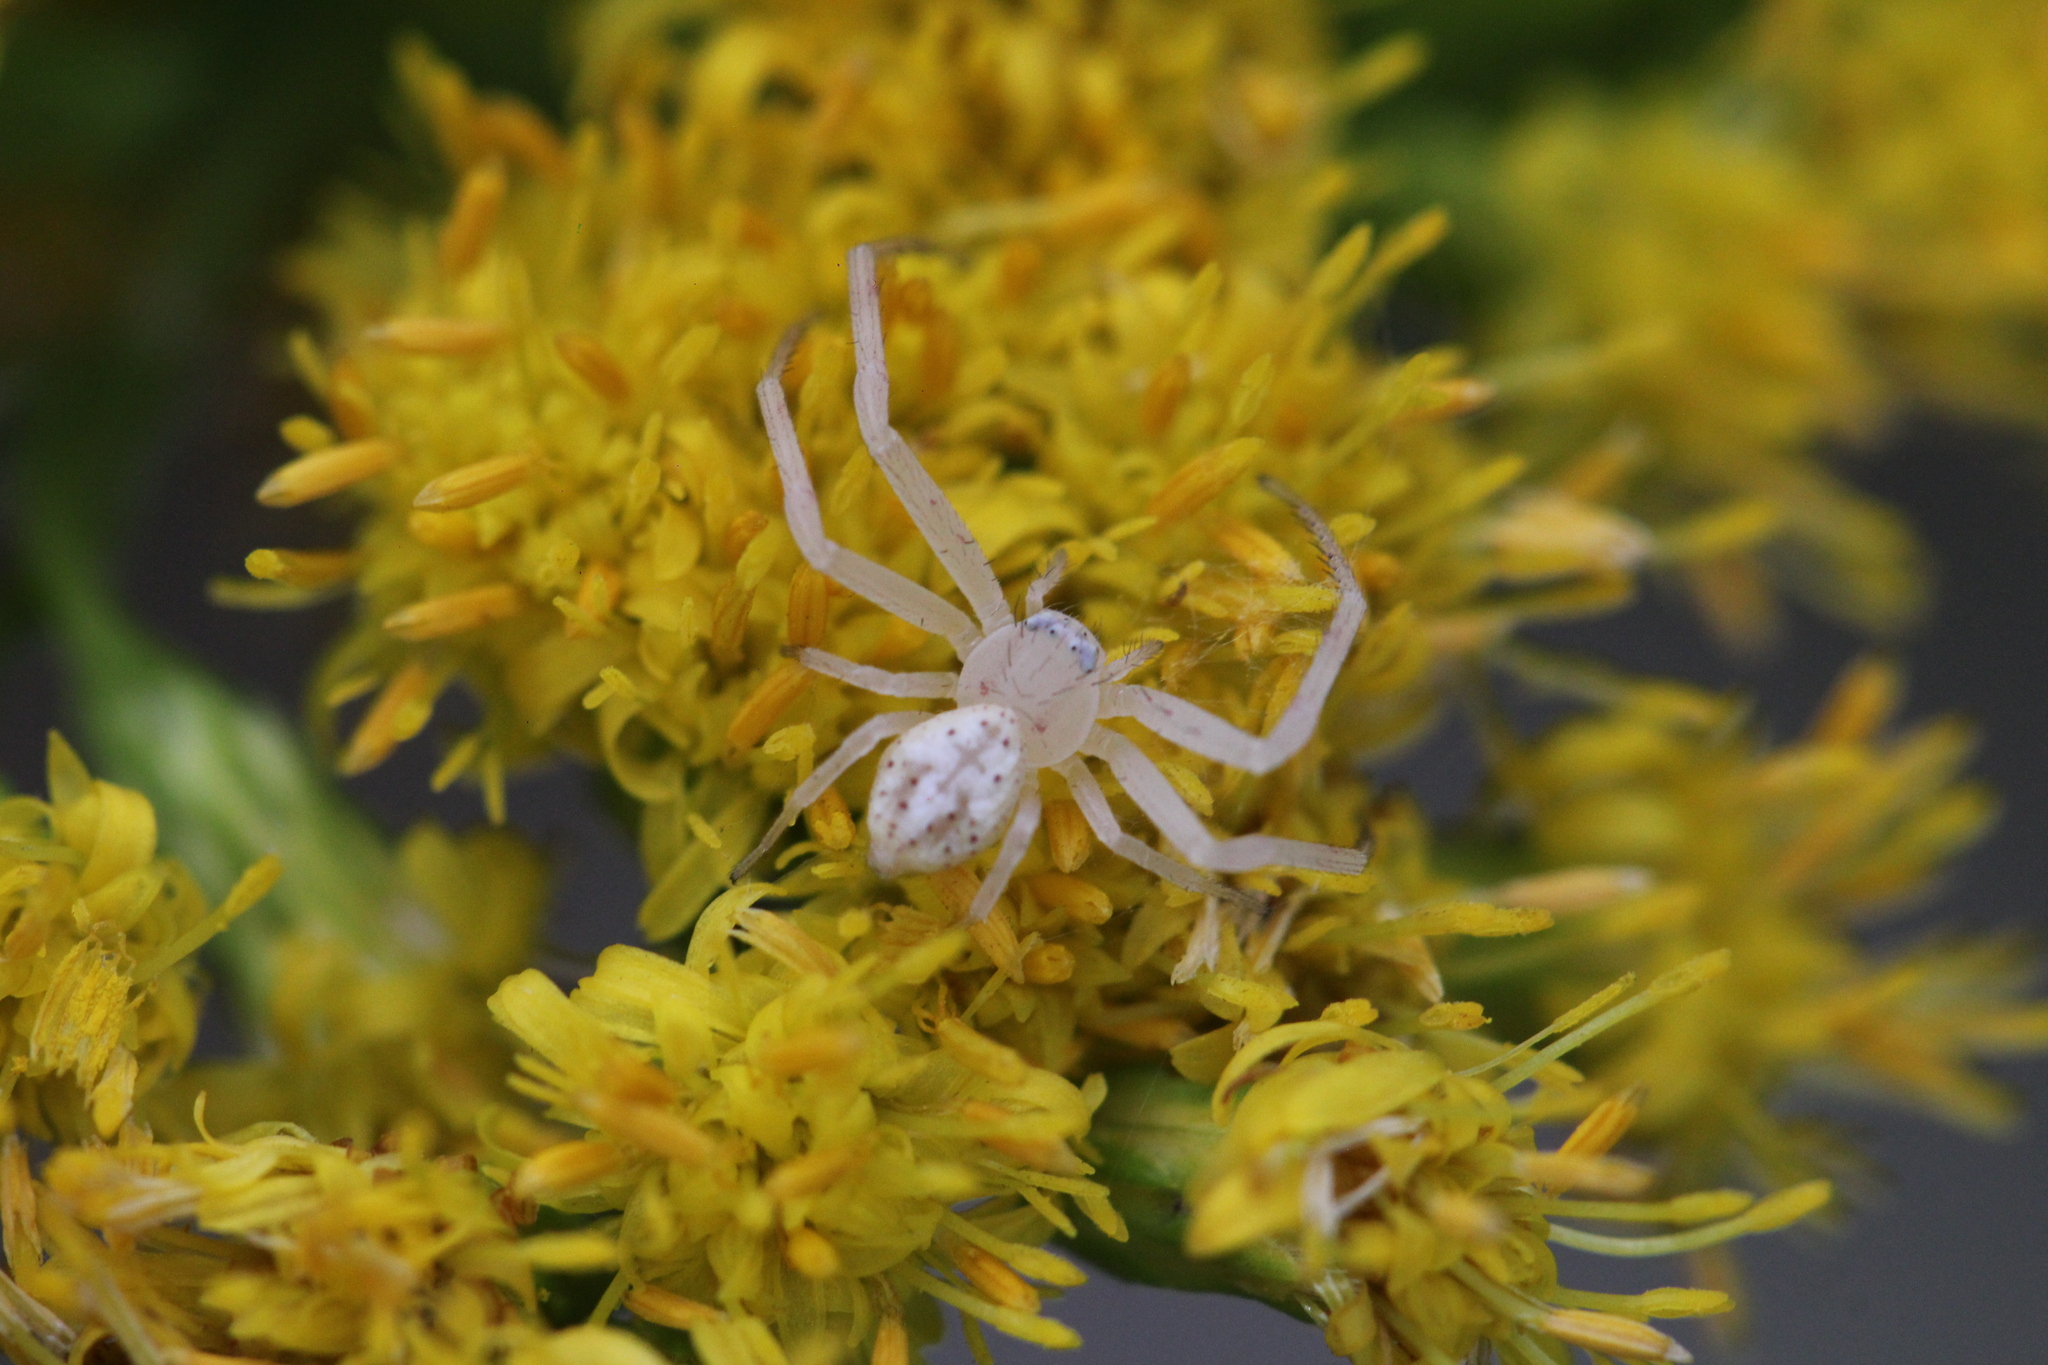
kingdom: Animalia
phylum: Arthropoda
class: Arachnida
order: Araneae
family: Thomisidae
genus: Misumenops
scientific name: Misumenops
